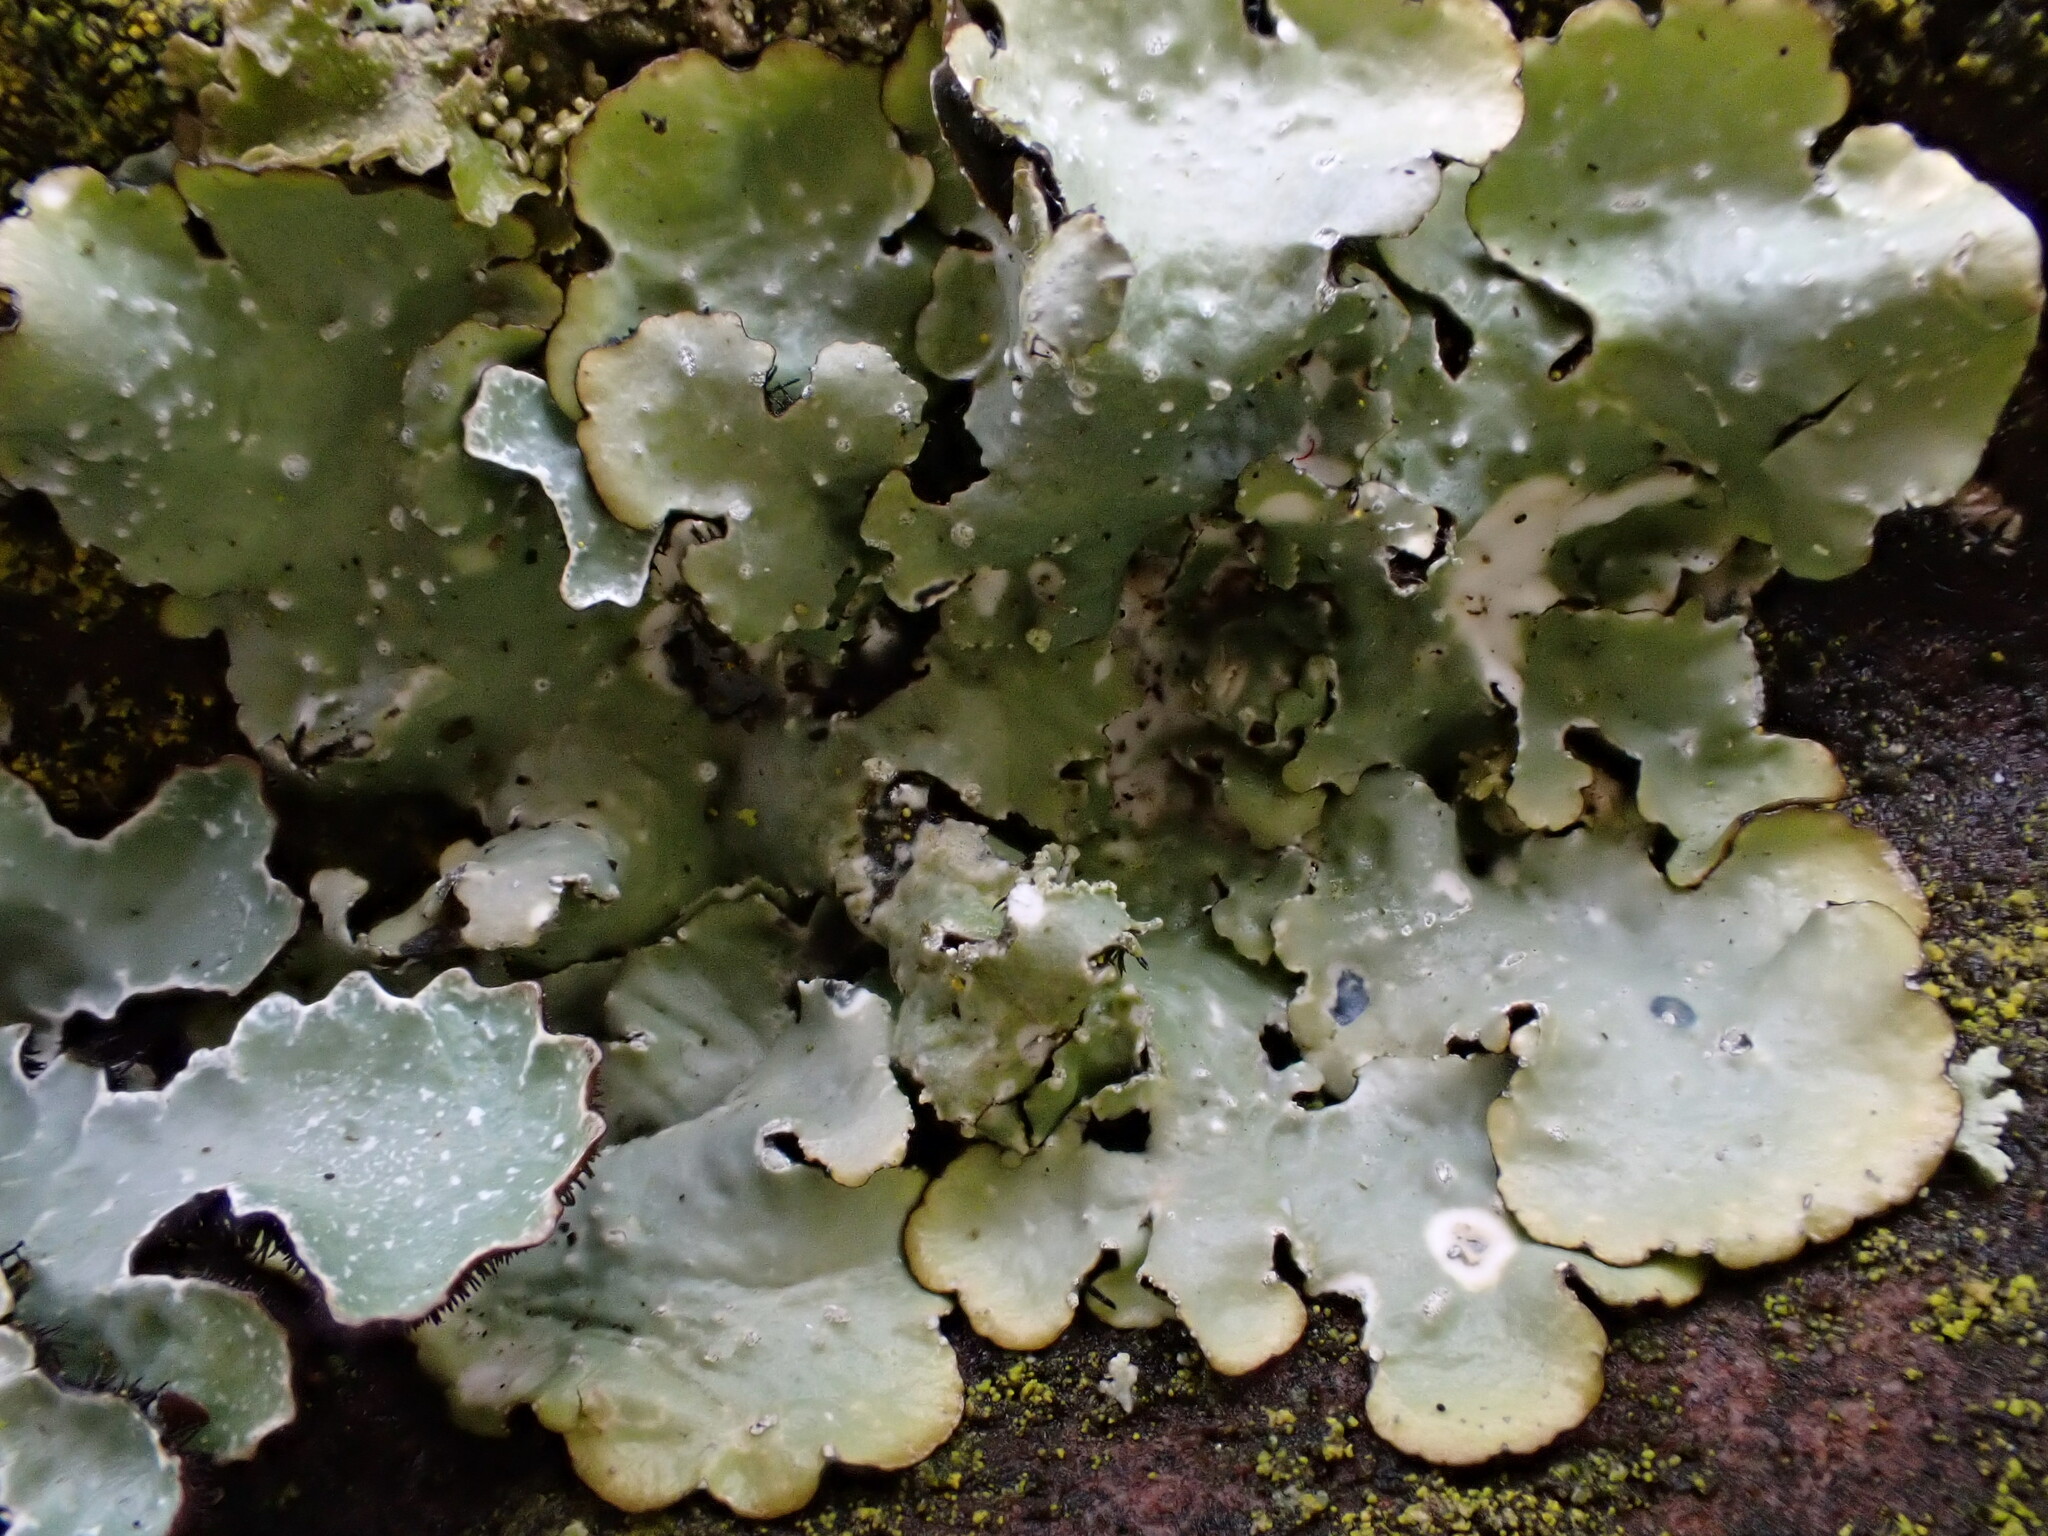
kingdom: Fungi
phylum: Ascomycota
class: Lecanoromycetes
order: Lecanorales
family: Parmeliaceae
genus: Punctelia
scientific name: Punctelia jeckeri
